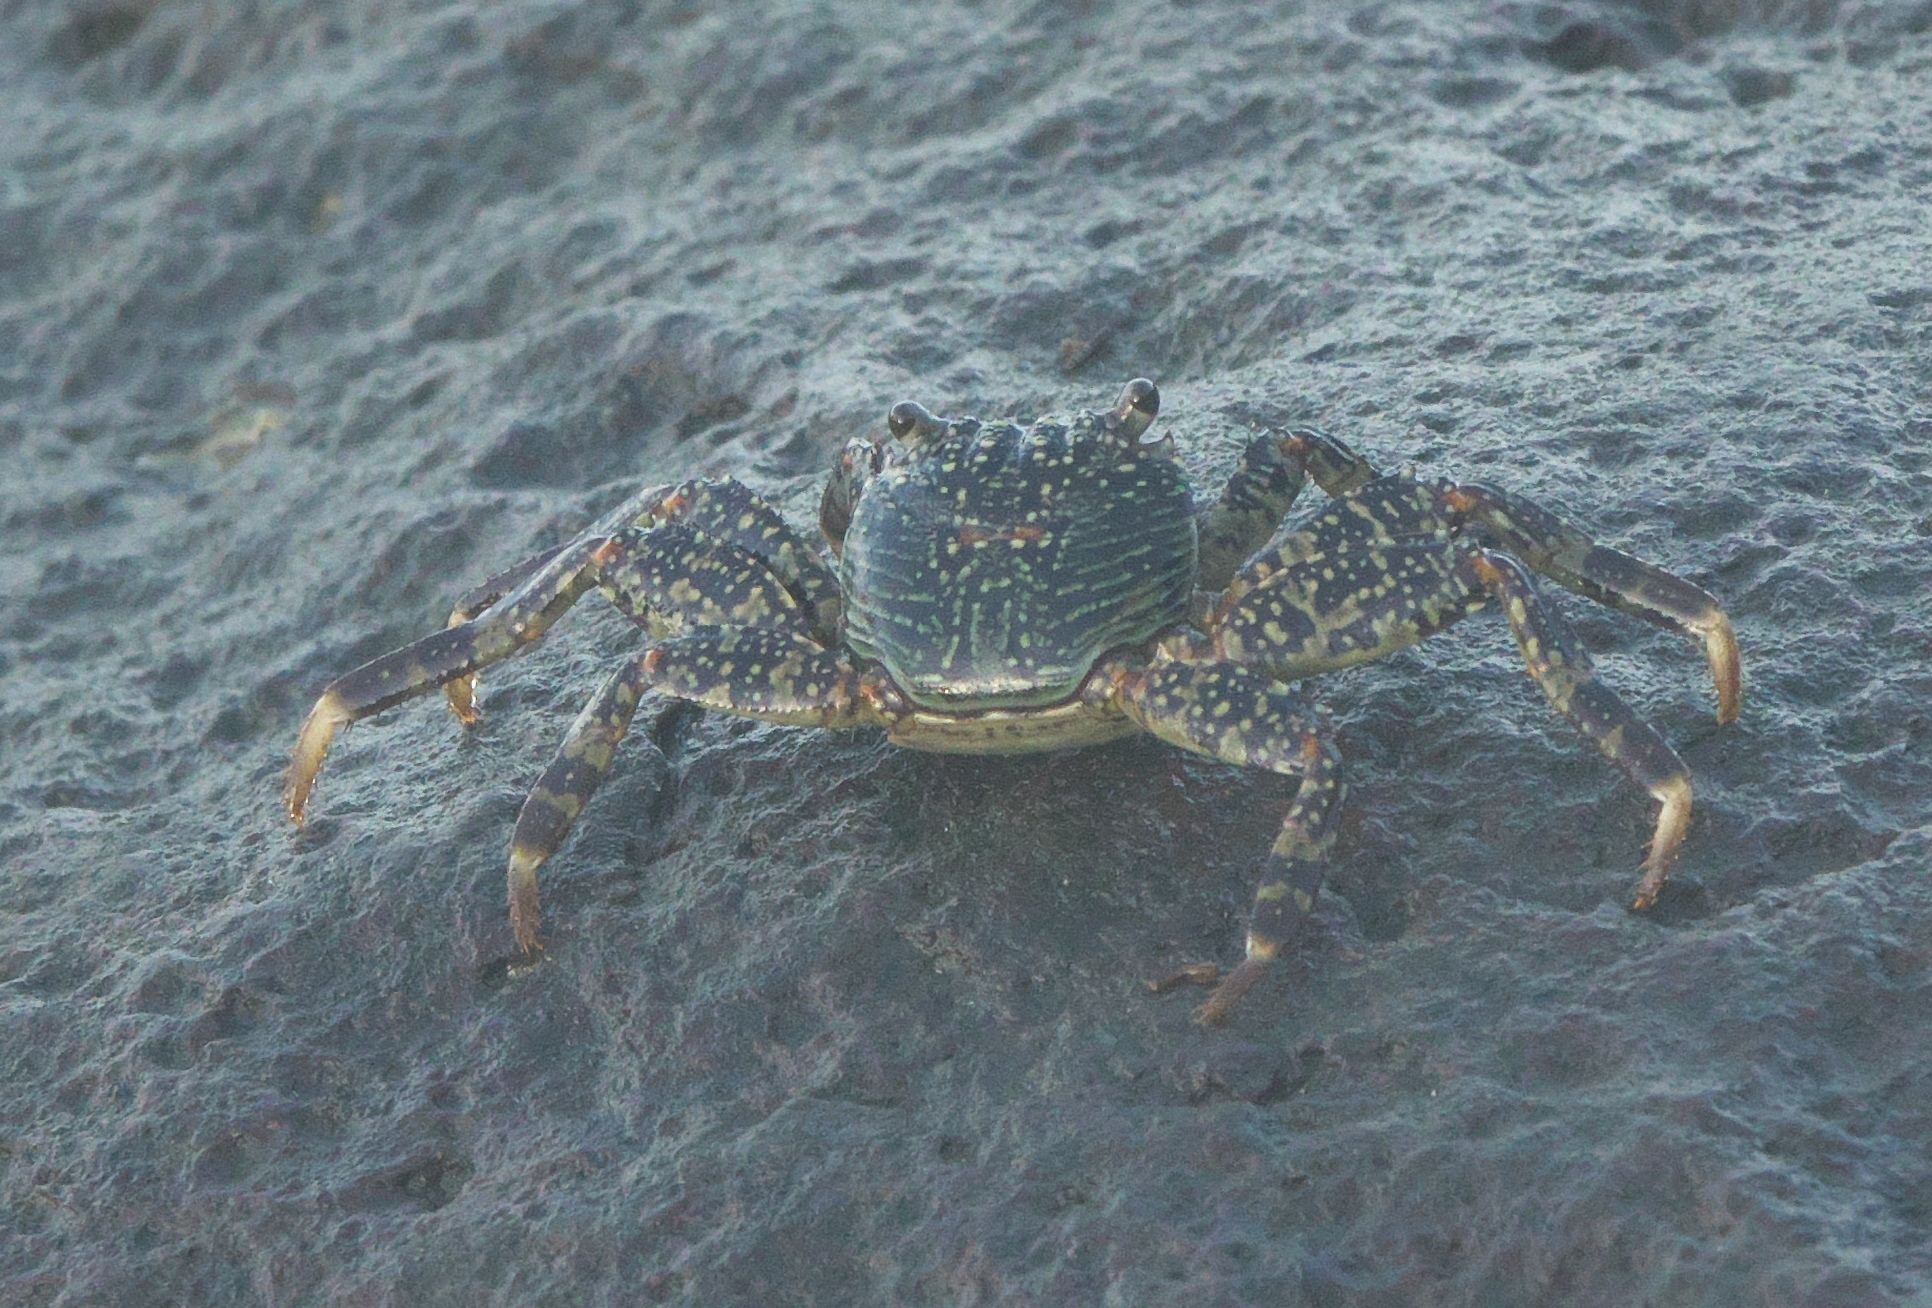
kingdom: Animalia
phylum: Arthropoda
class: Malacostraca
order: Decapoda
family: Grapsidae
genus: Grapsus
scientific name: Grapsus albolineatus
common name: Mottled lightfoot crab
